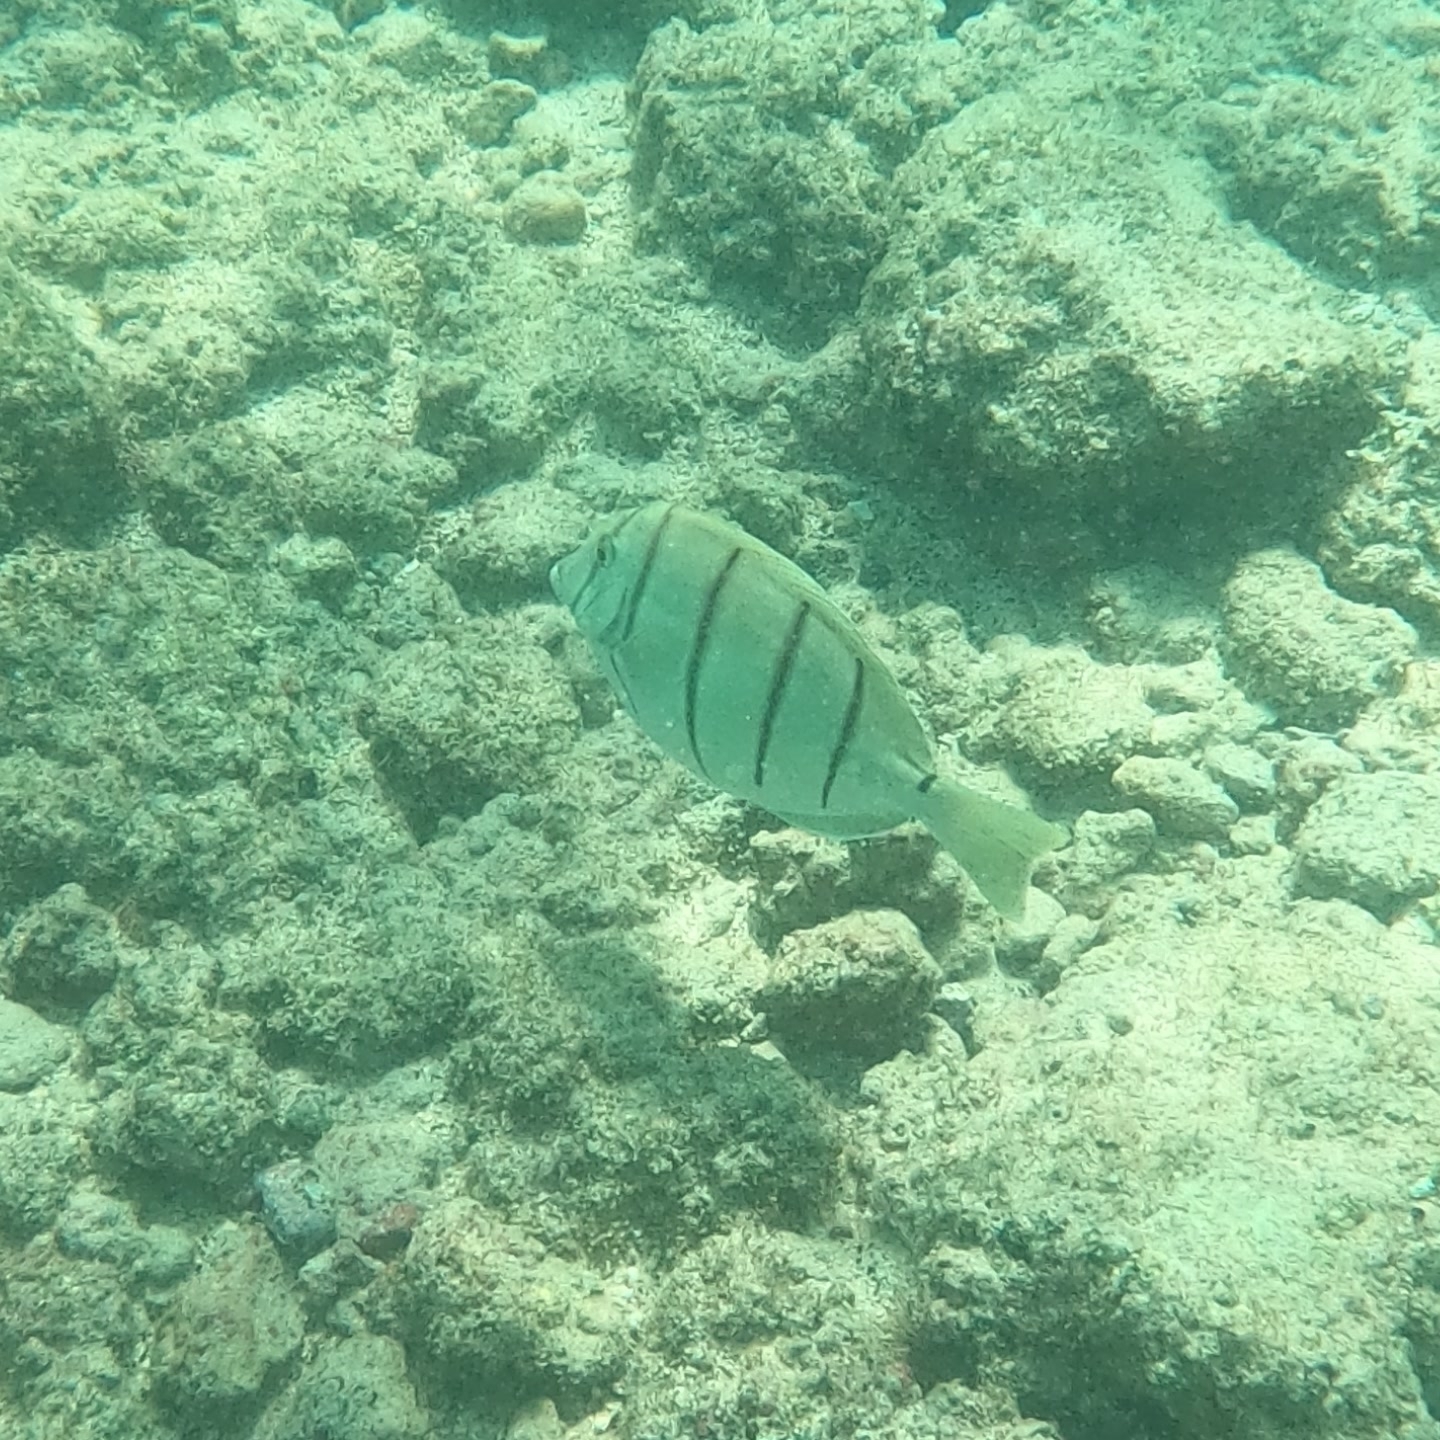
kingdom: Animalia
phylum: Chordata
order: Perciformes
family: Acanthuridae
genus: Acanthurus
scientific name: Acanthurus triostegus
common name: Convict surgeonfish
